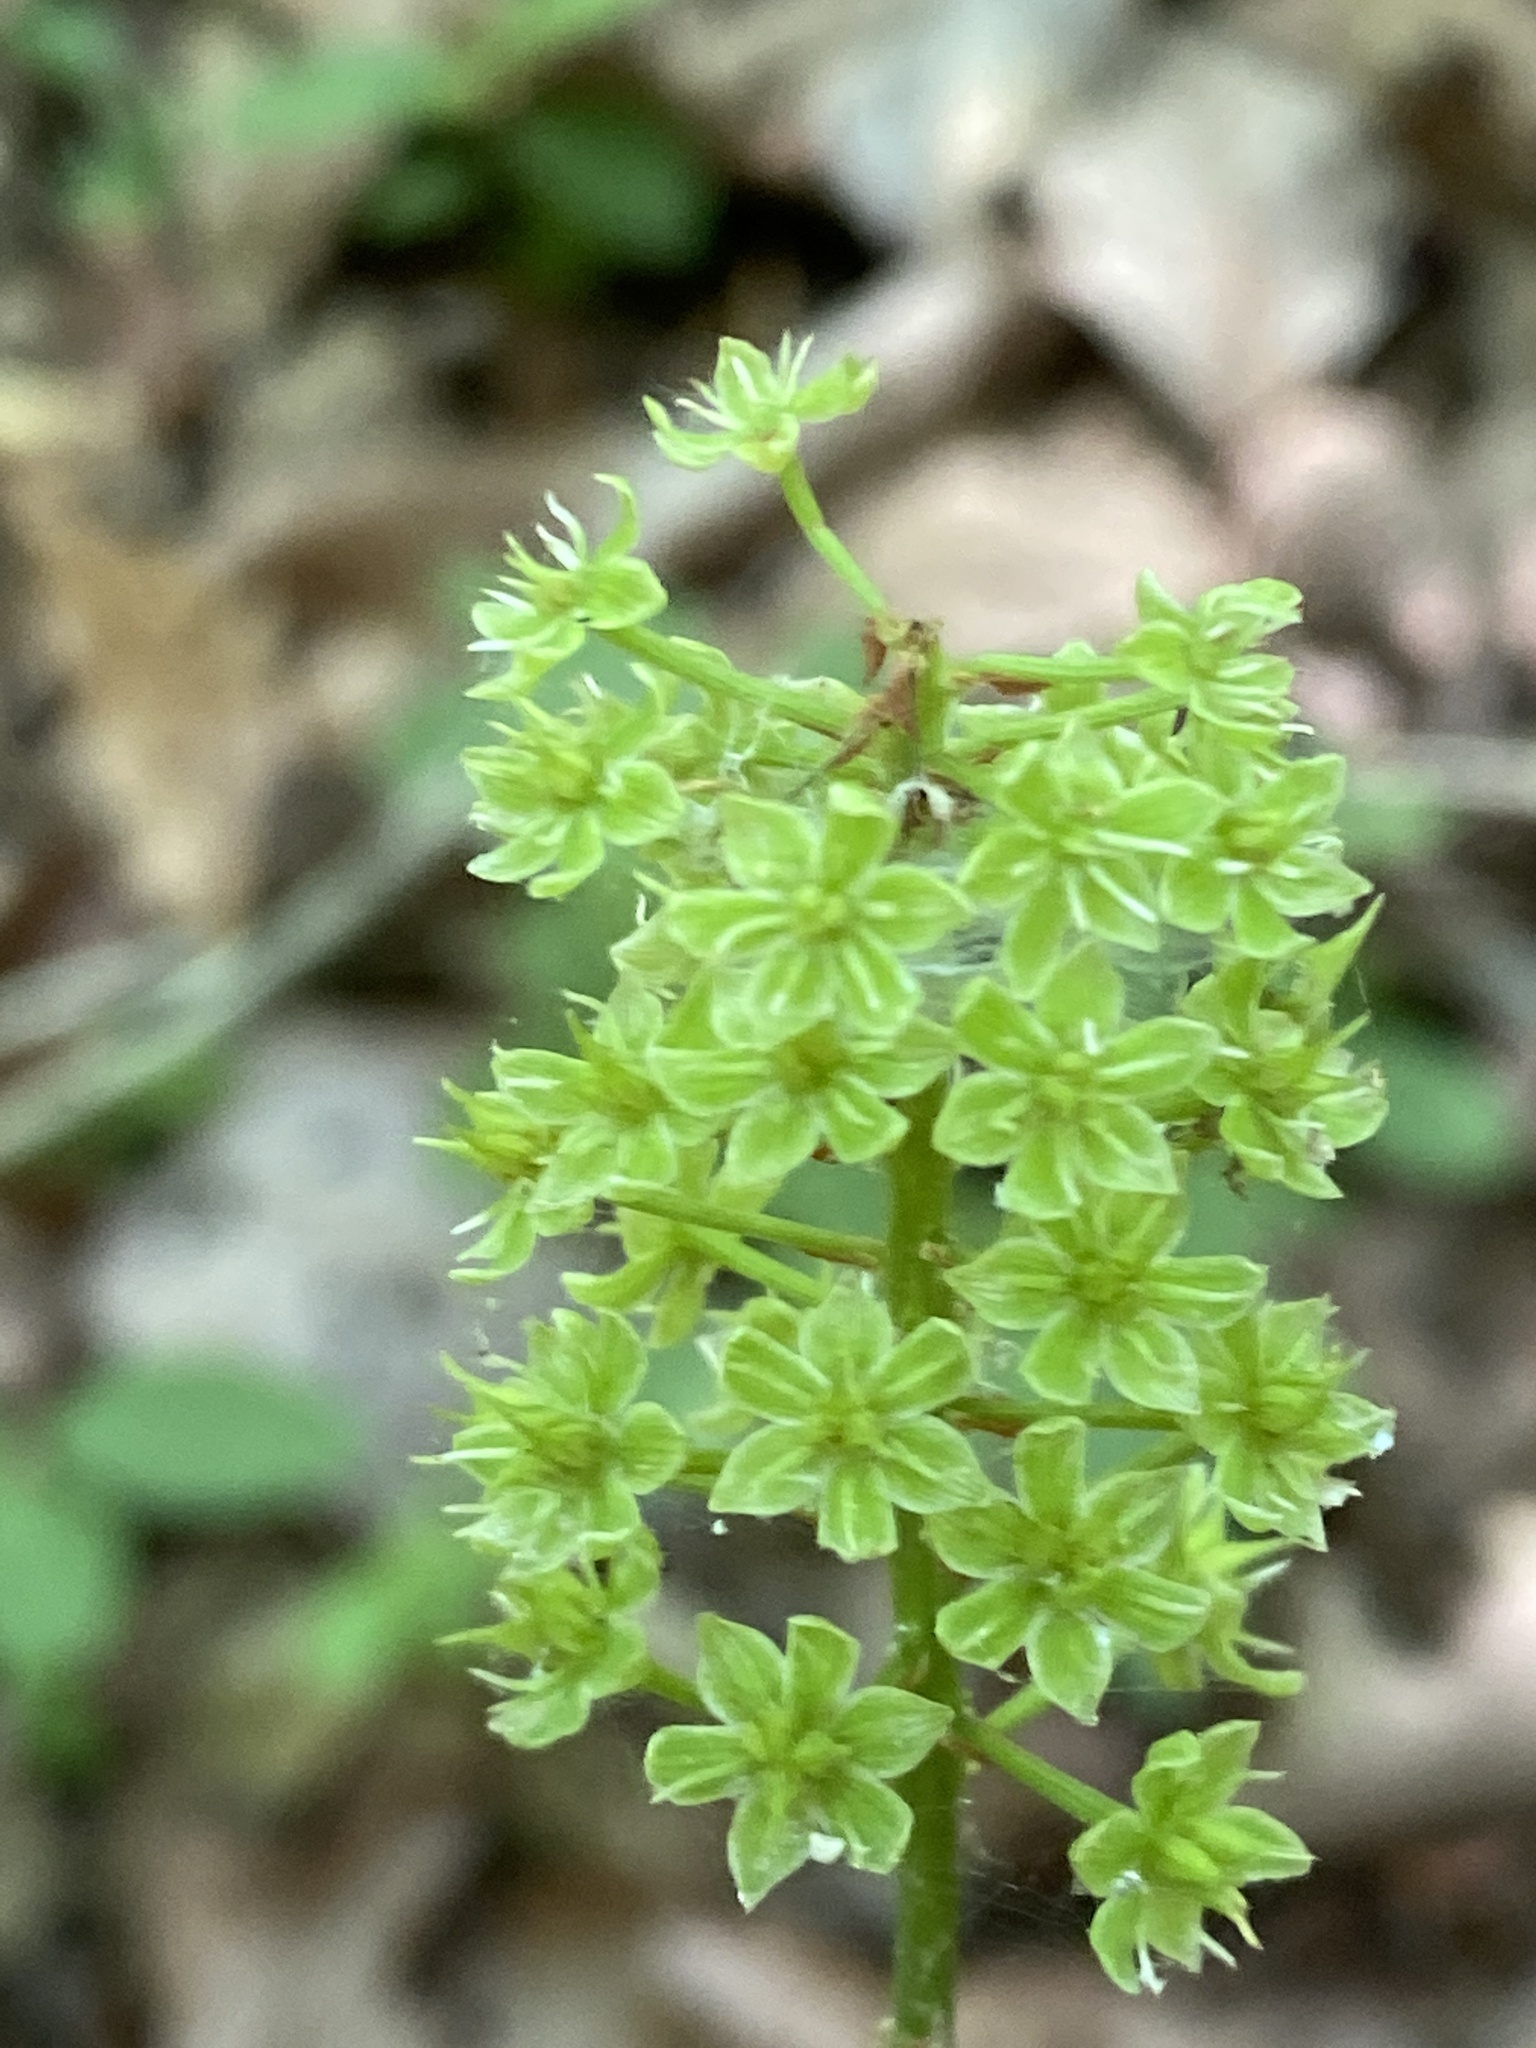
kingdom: Plantae
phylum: Tracheophyta
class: Liliopsida
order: Liliales
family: Melanthiaceae
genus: Amianthium
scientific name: Amianthium muscitoxicum
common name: Fly-poison
